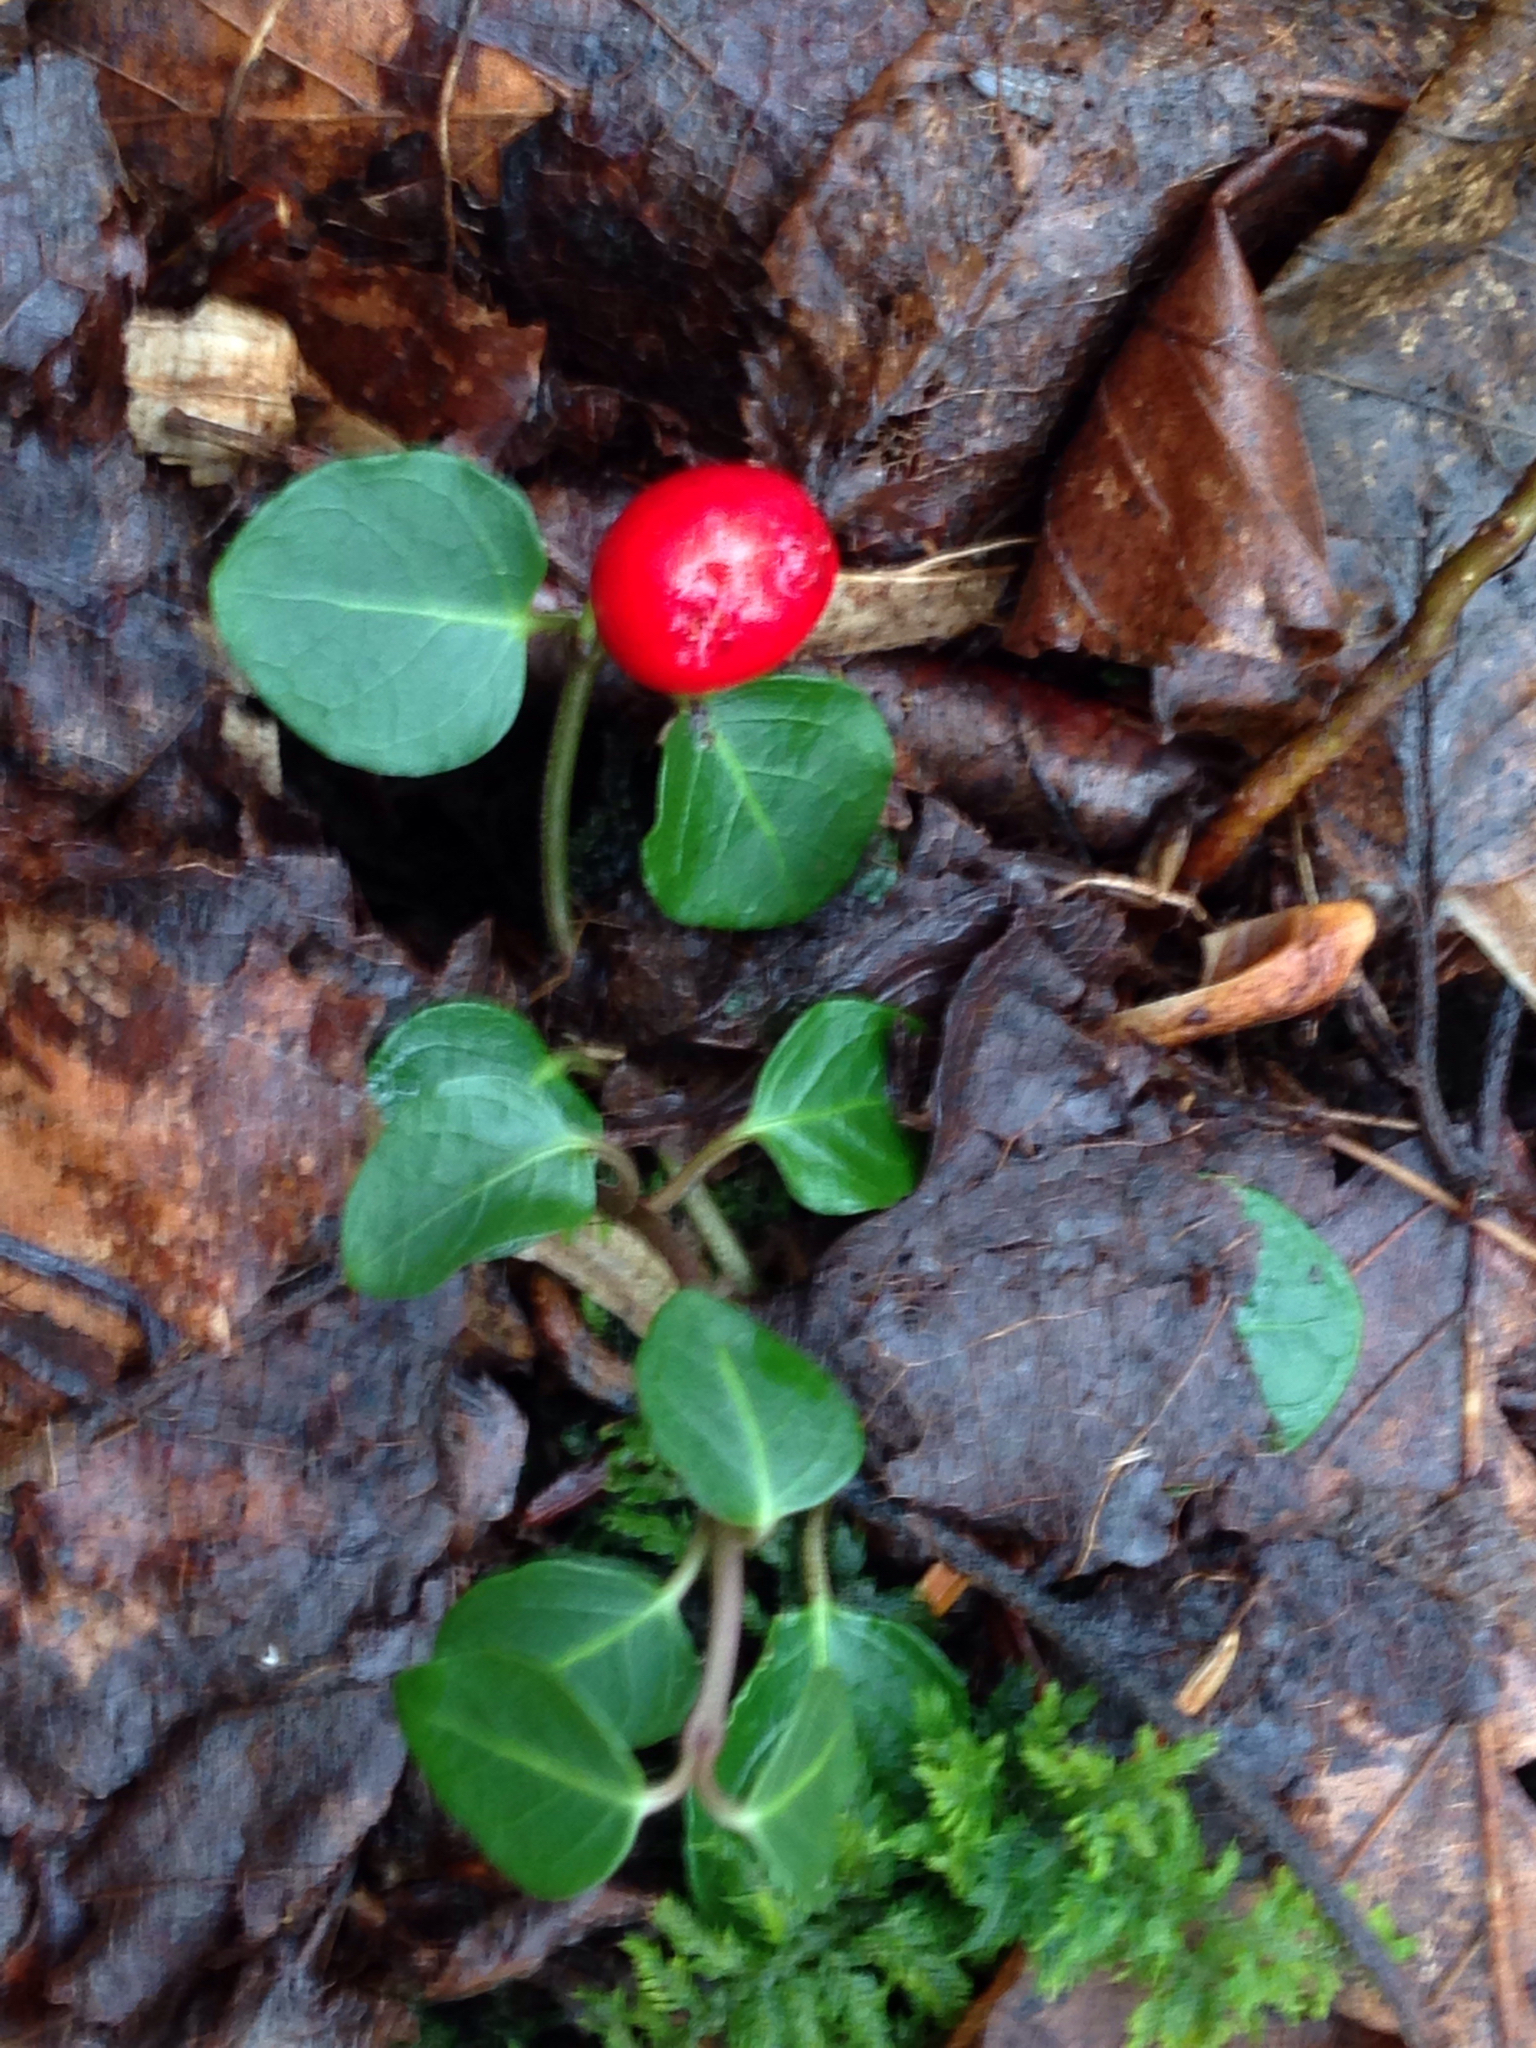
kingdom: Plantae
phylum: Tracheophyta
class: Magnoliopsida
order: Gentianales
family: Rubiaceae
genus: Mitchella
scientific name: Mitchella repens
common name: Partridge-berry
